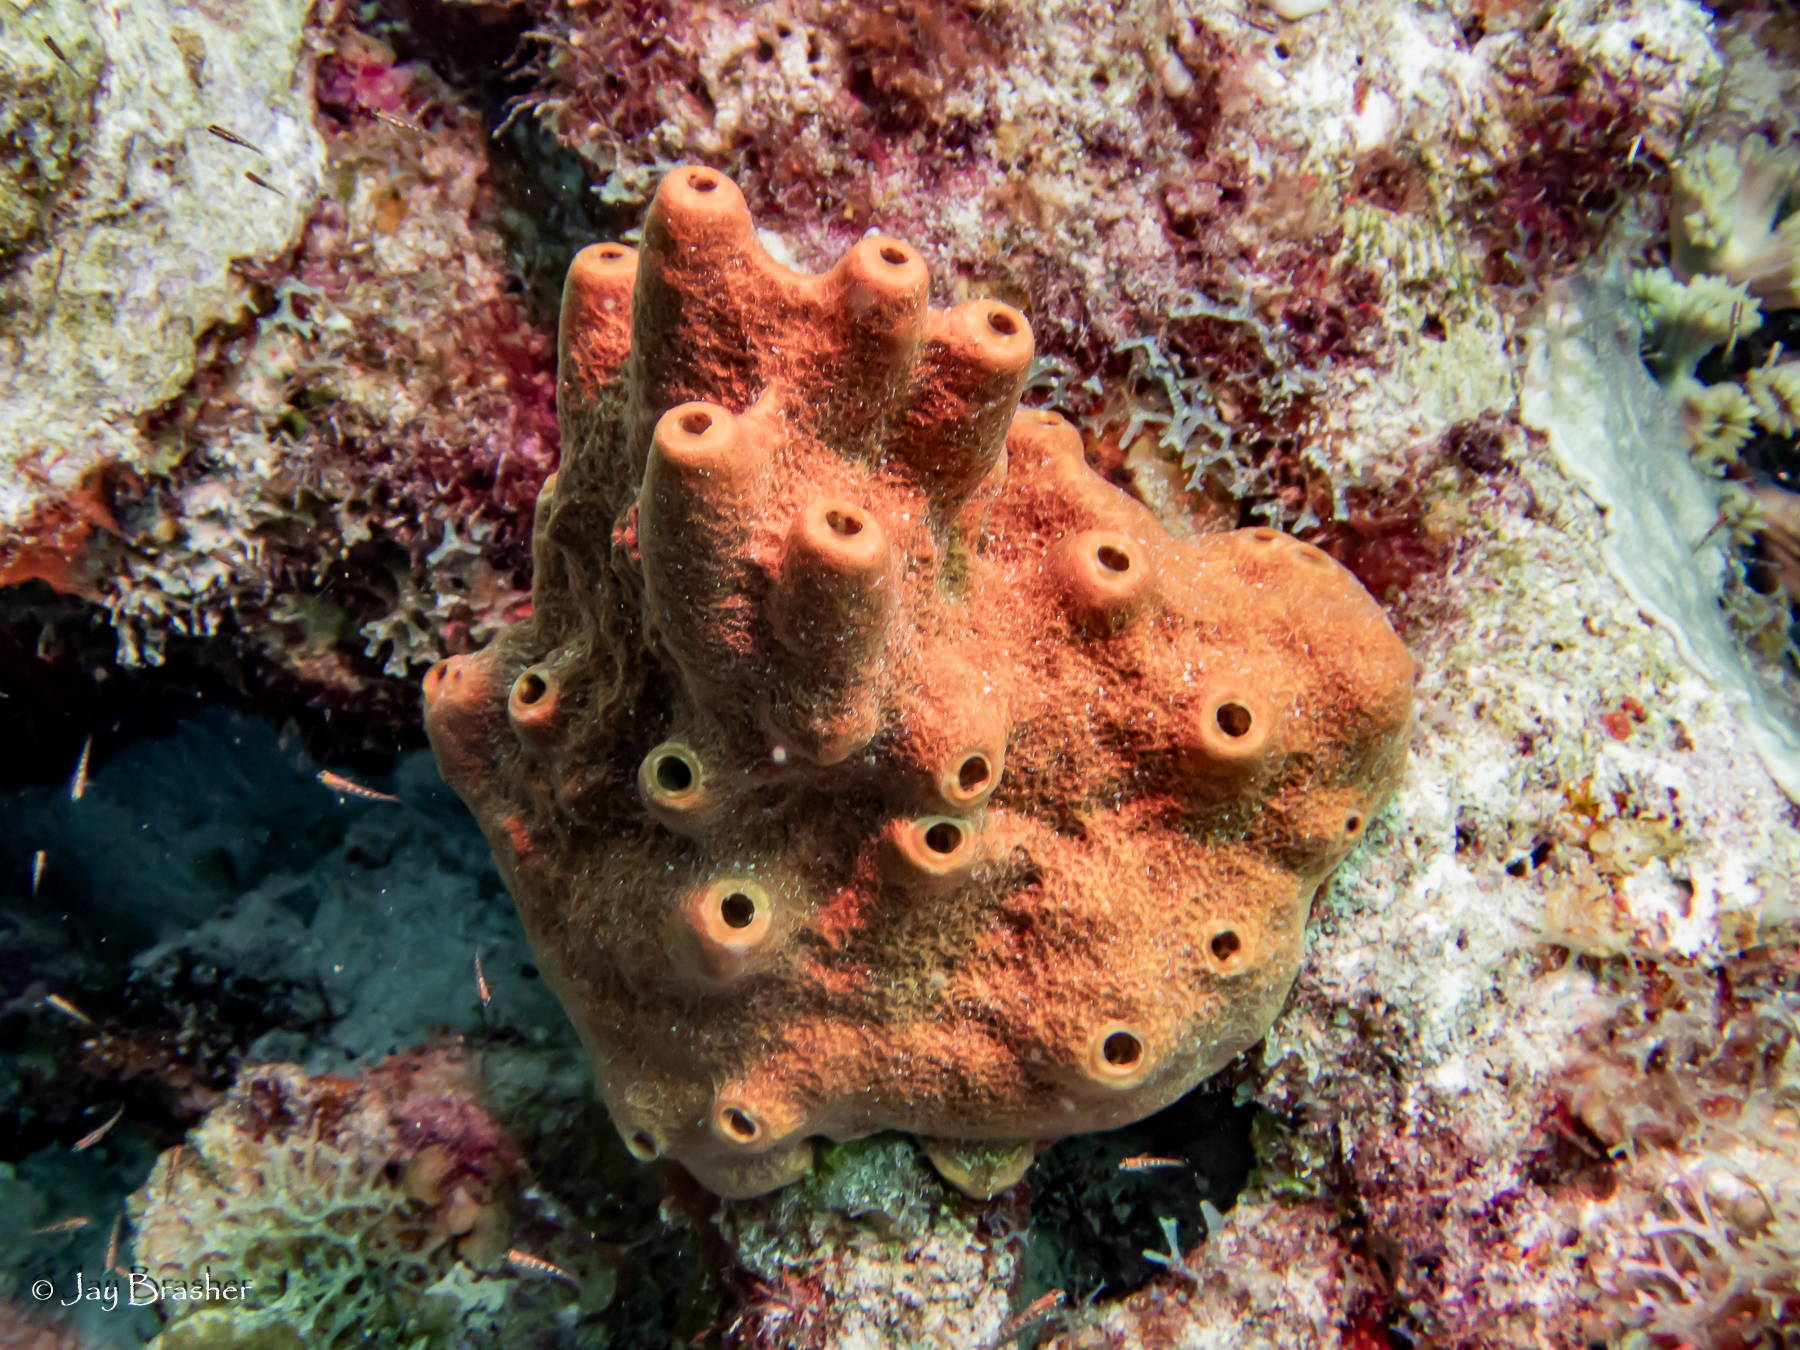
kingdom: Animalia
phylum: Porifera
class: Demospongiae
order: Axinellida
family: Raspailiidae
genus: Ectyoplasia
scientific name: Ectyoplasia ferox
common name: Brown encrusting octopus sponge
